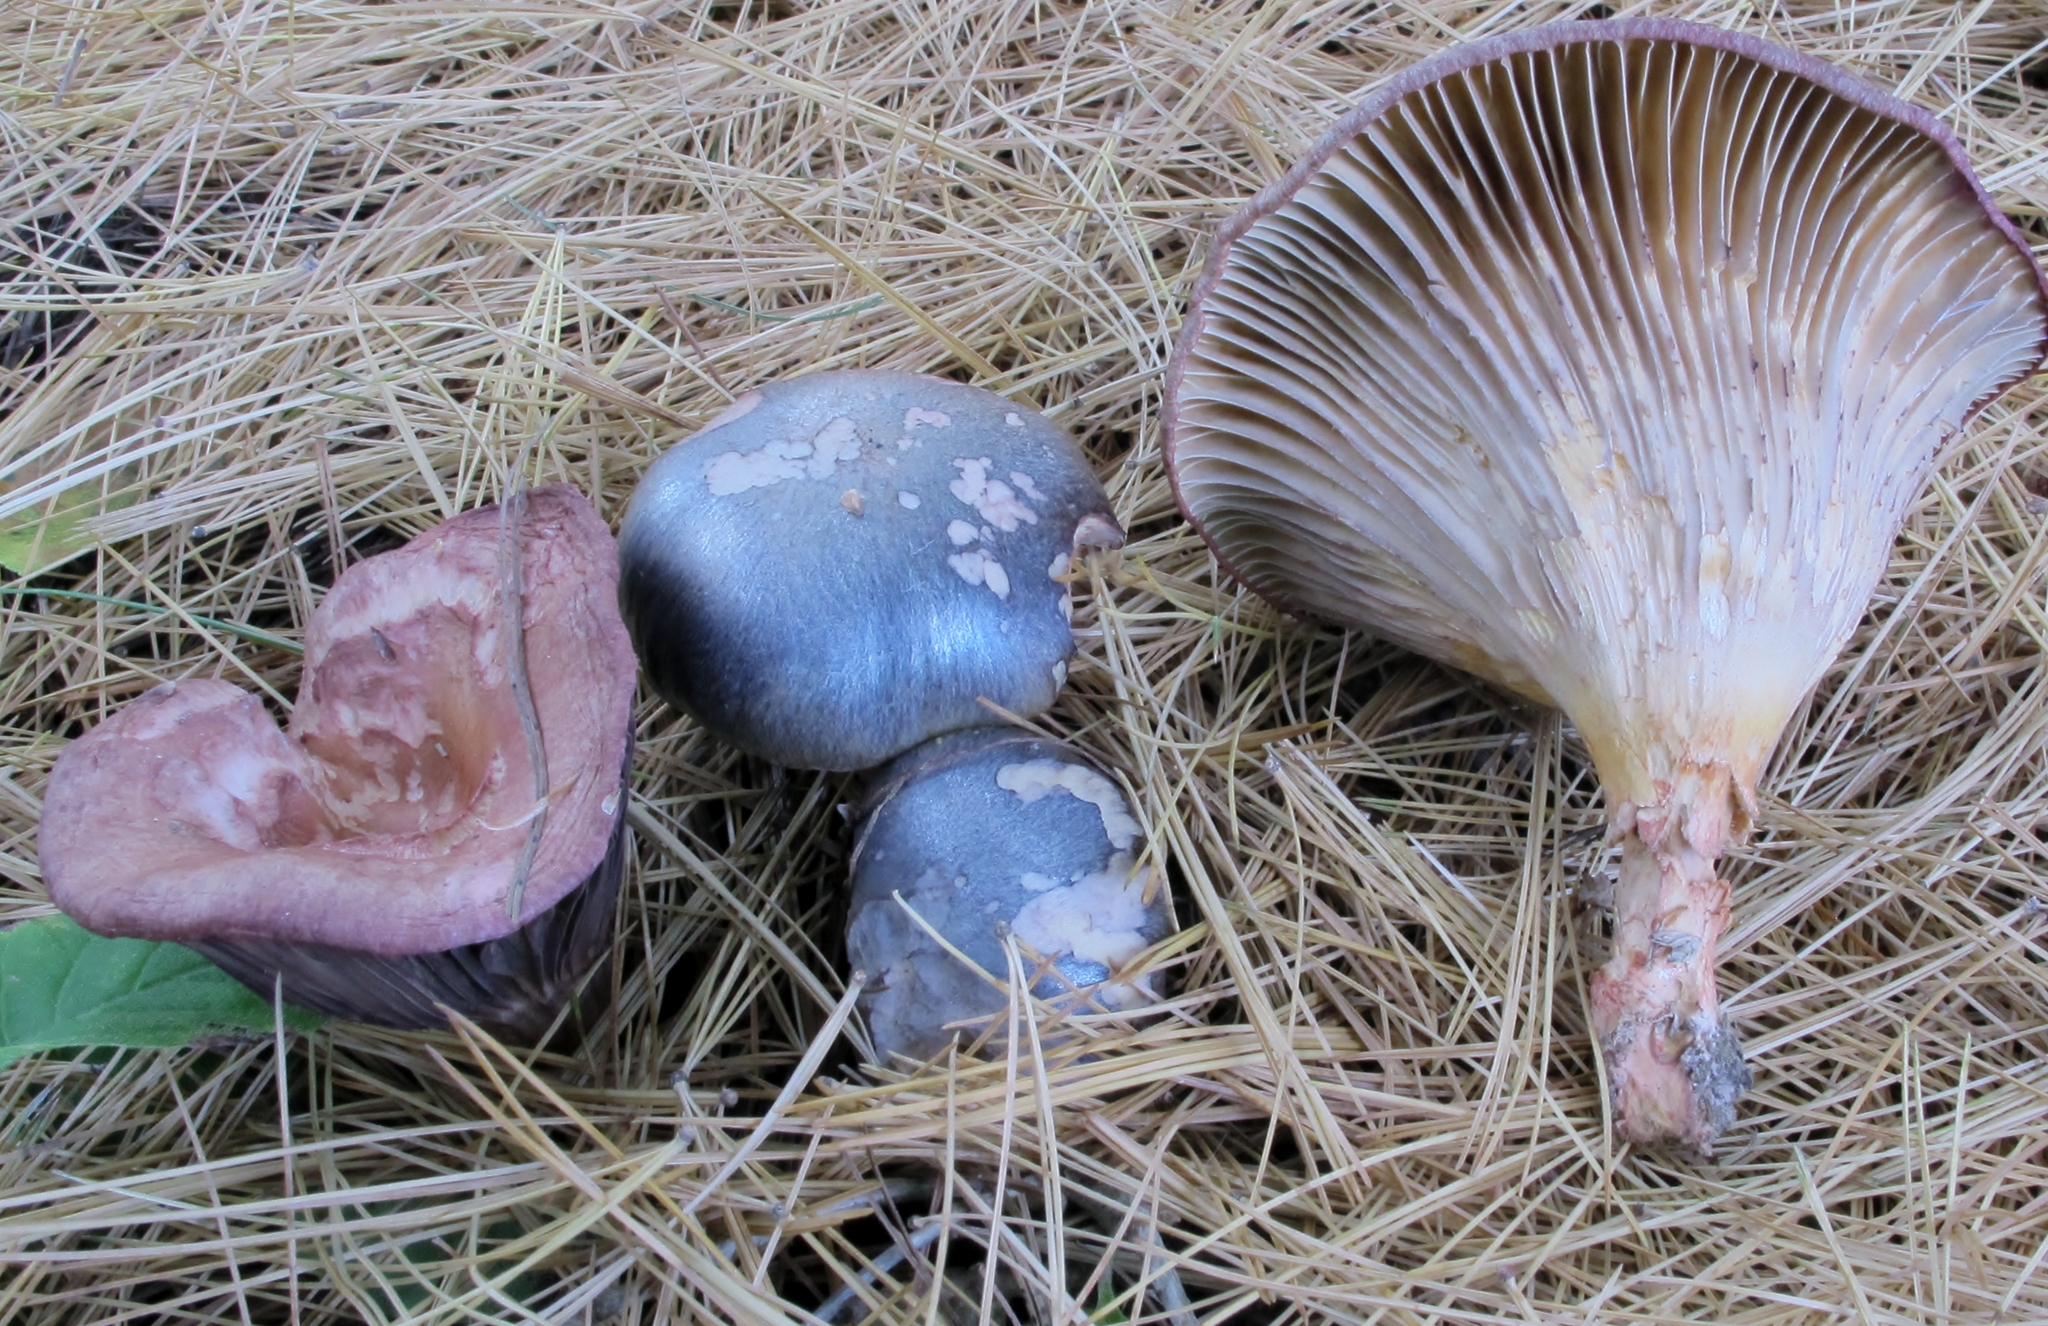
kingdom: Fungi
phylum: Basidiomycota
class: Agaricomycetes
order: Boletales
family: Gomphidiaceae
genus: Chroogomphus
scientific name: Chroogomphus vinicolor
